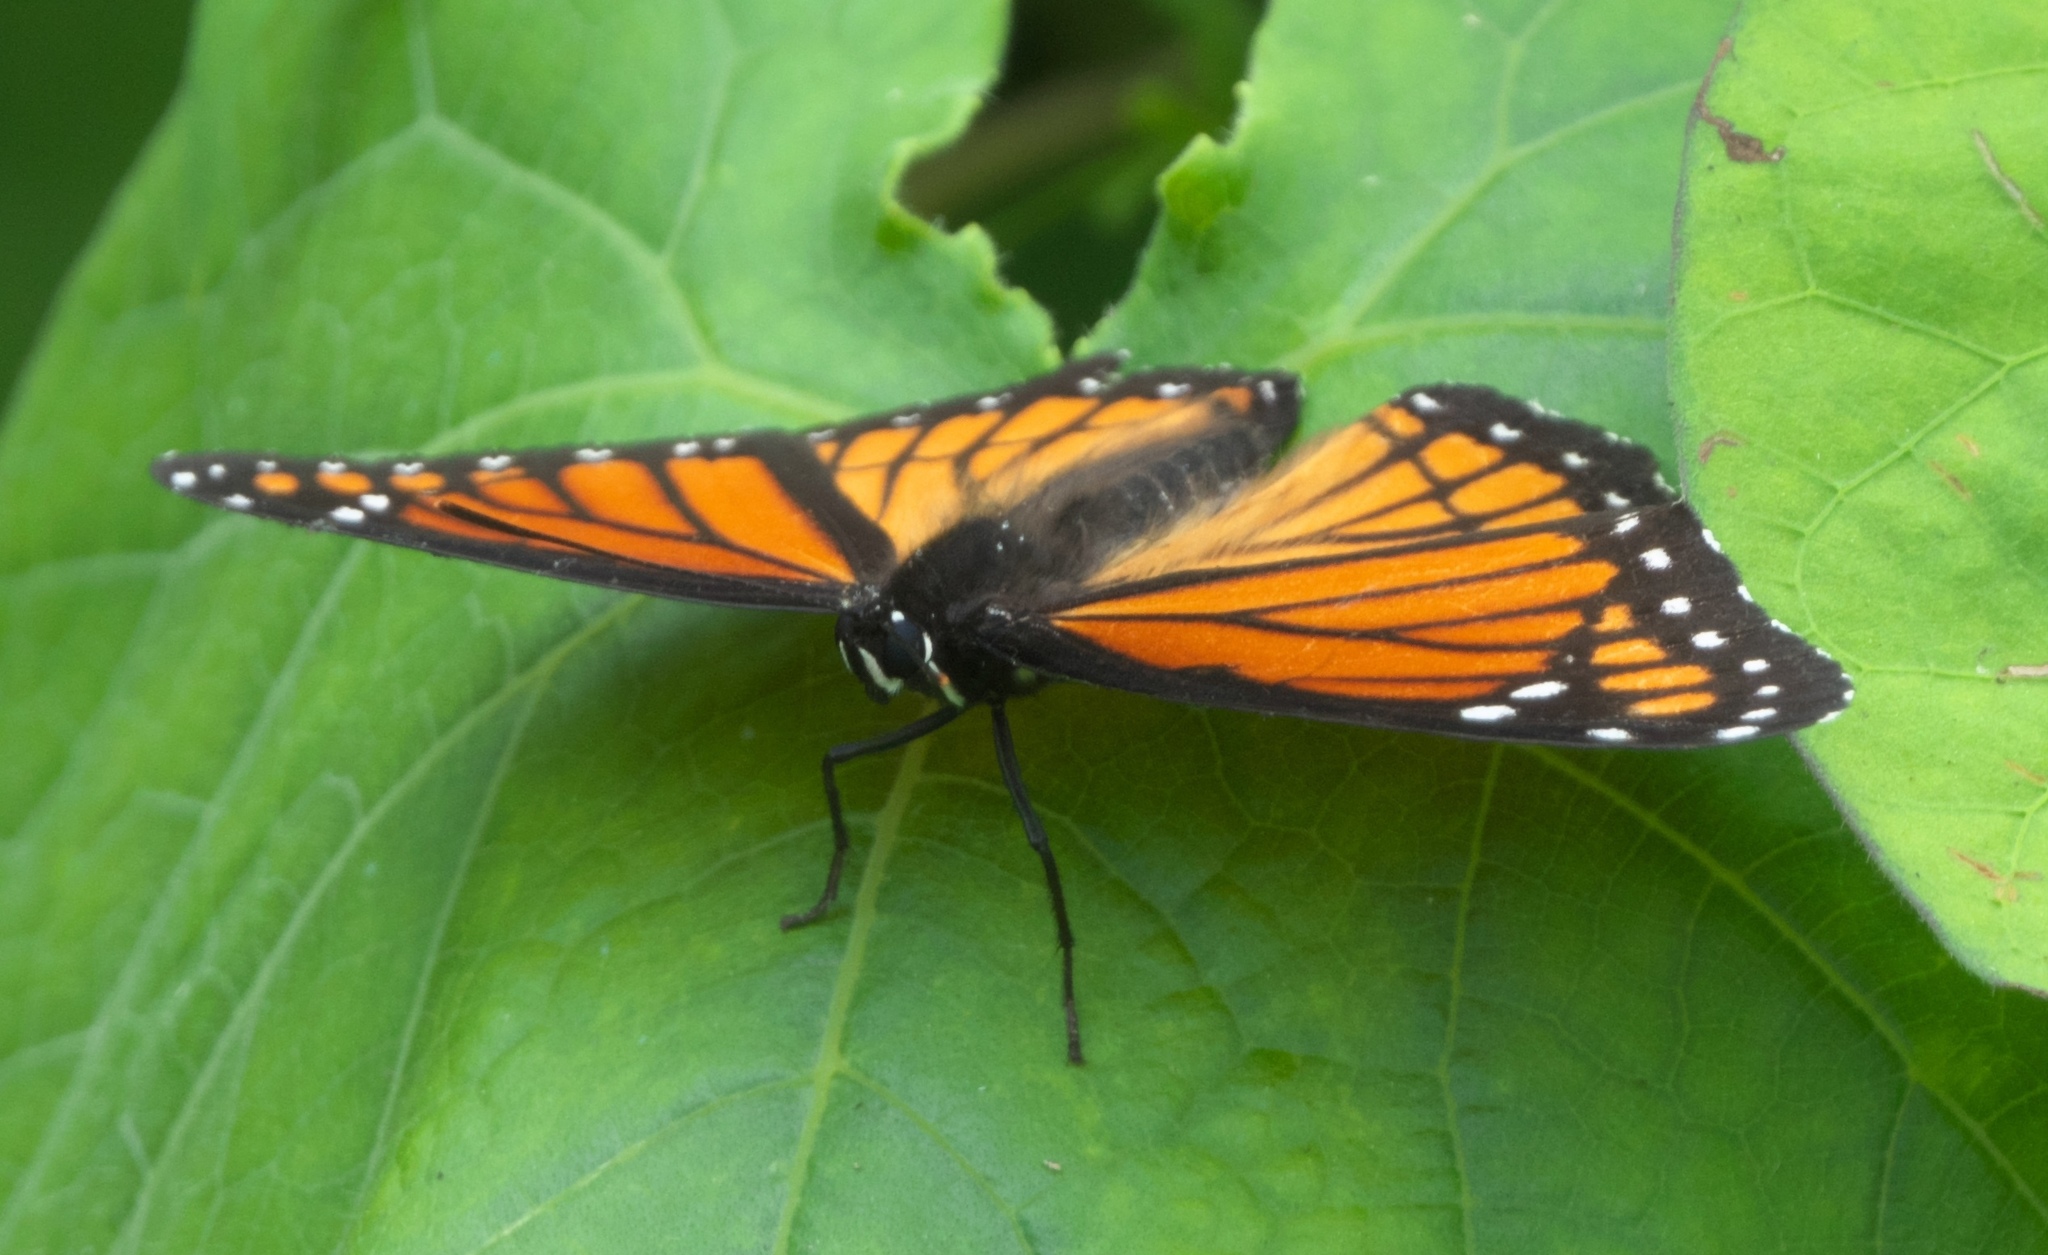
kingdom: Animalia
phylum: Arthropoda
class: Insecta
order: Lepidoptera
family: Nymphalidae
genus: Limenitis
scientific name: Limenitis archippus
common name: Viceroy
